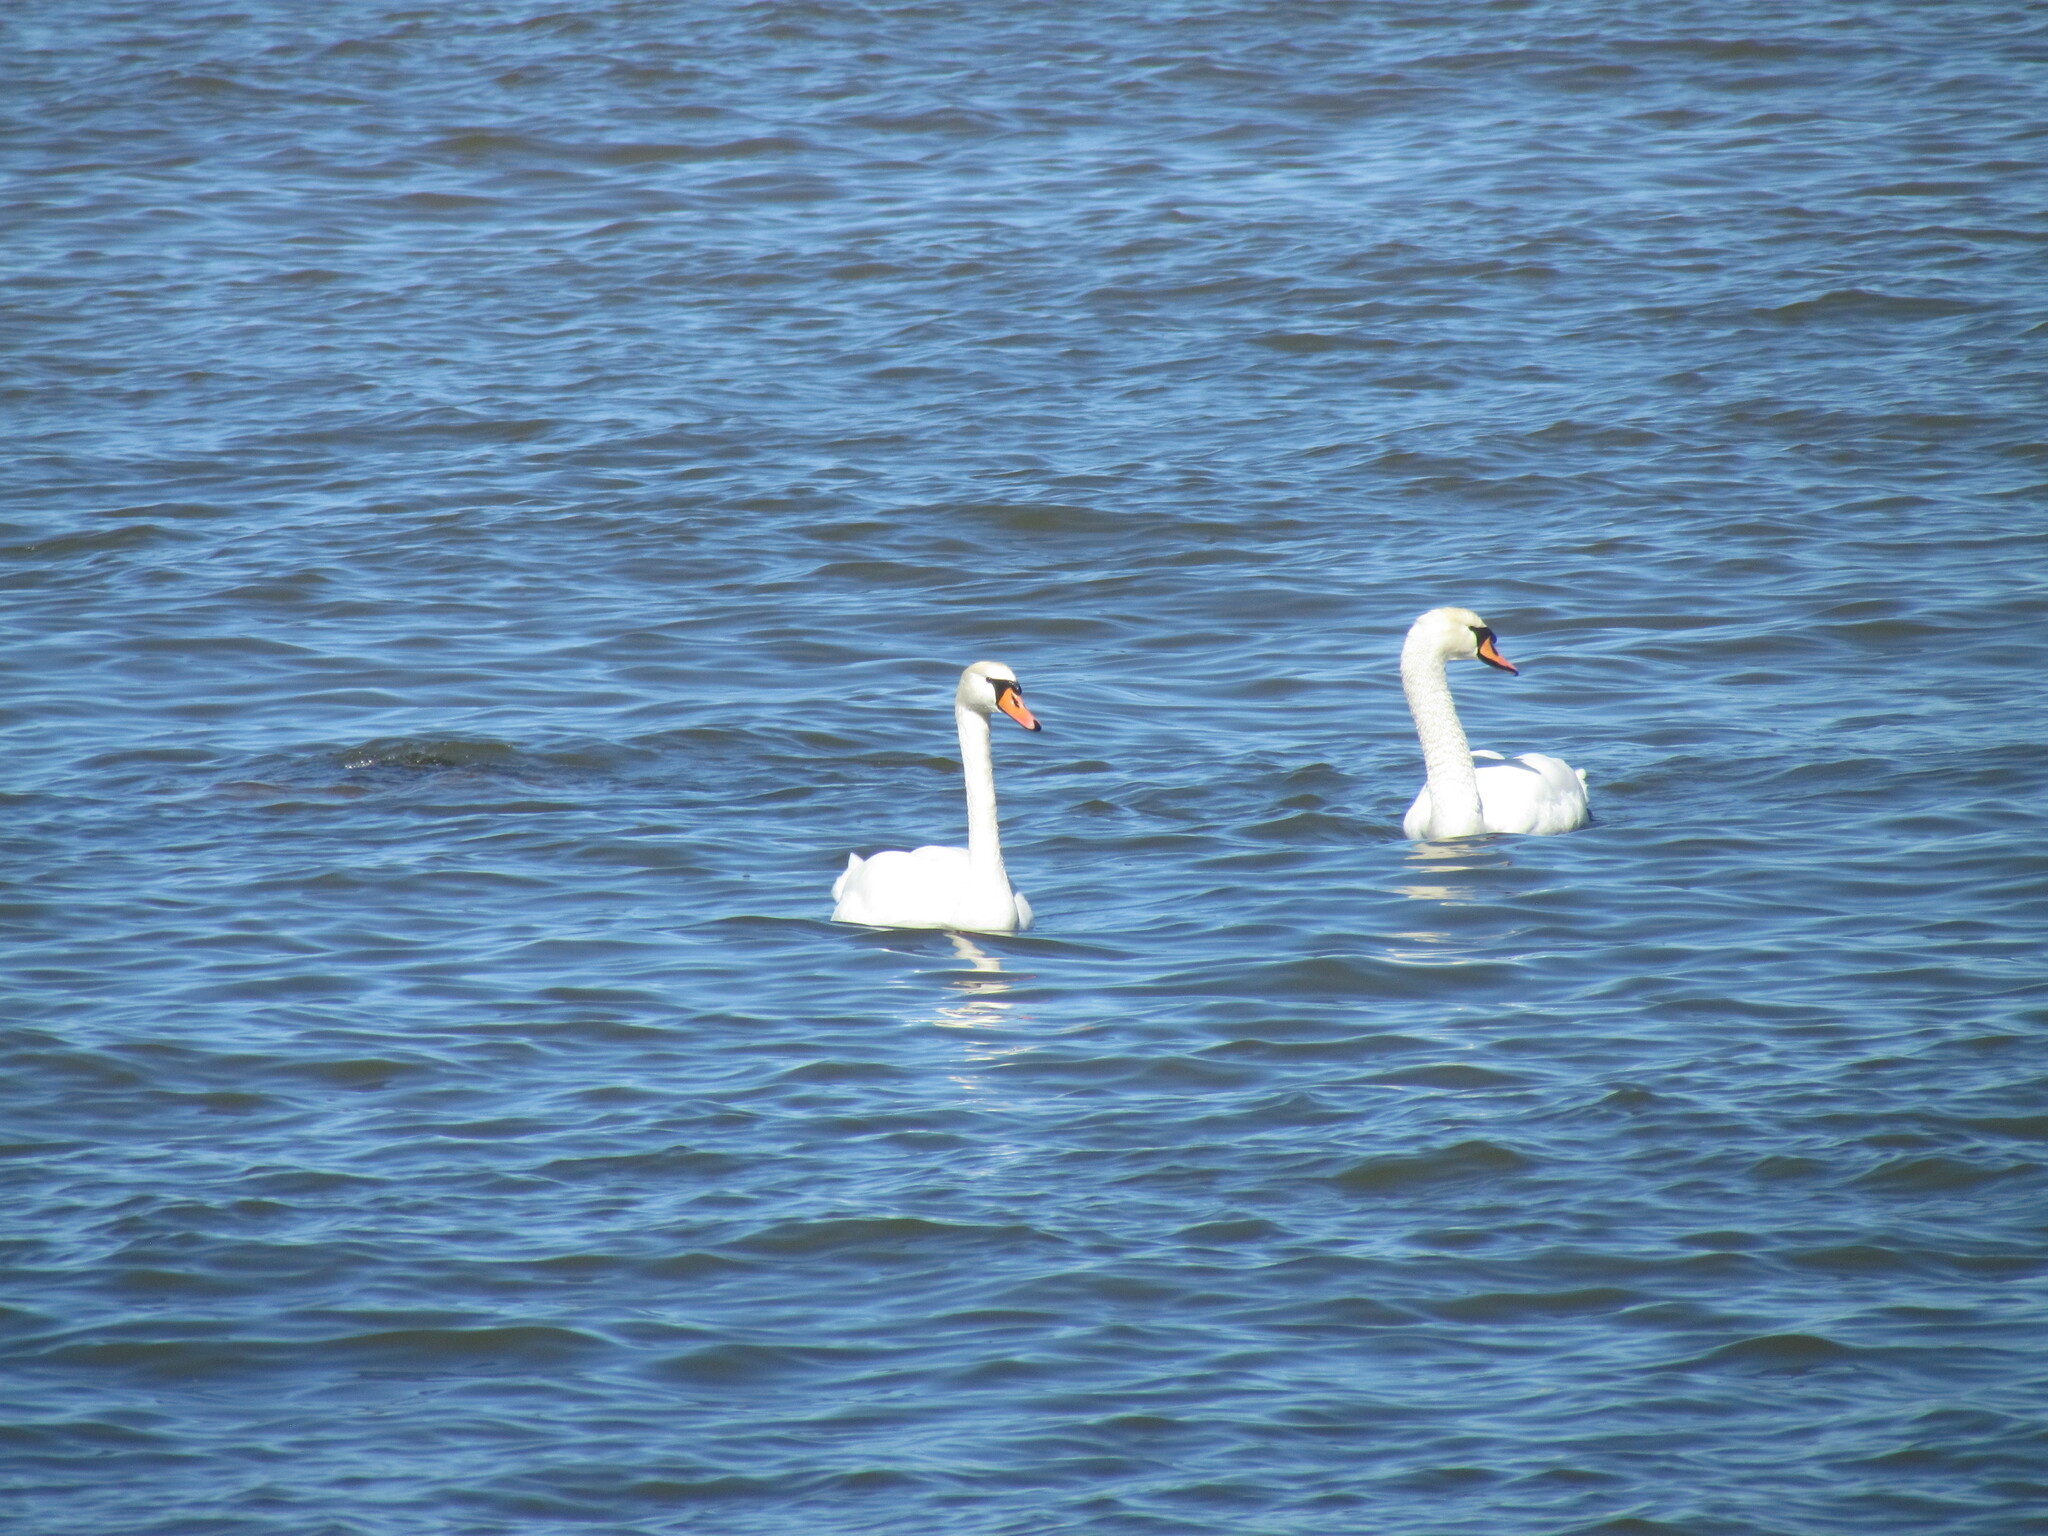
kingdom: Animalia
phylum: Chordata
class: Aves
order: Anseriformes
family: Anatidae
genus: Cygnus
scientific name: Cygnus olor
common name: Mute swan
